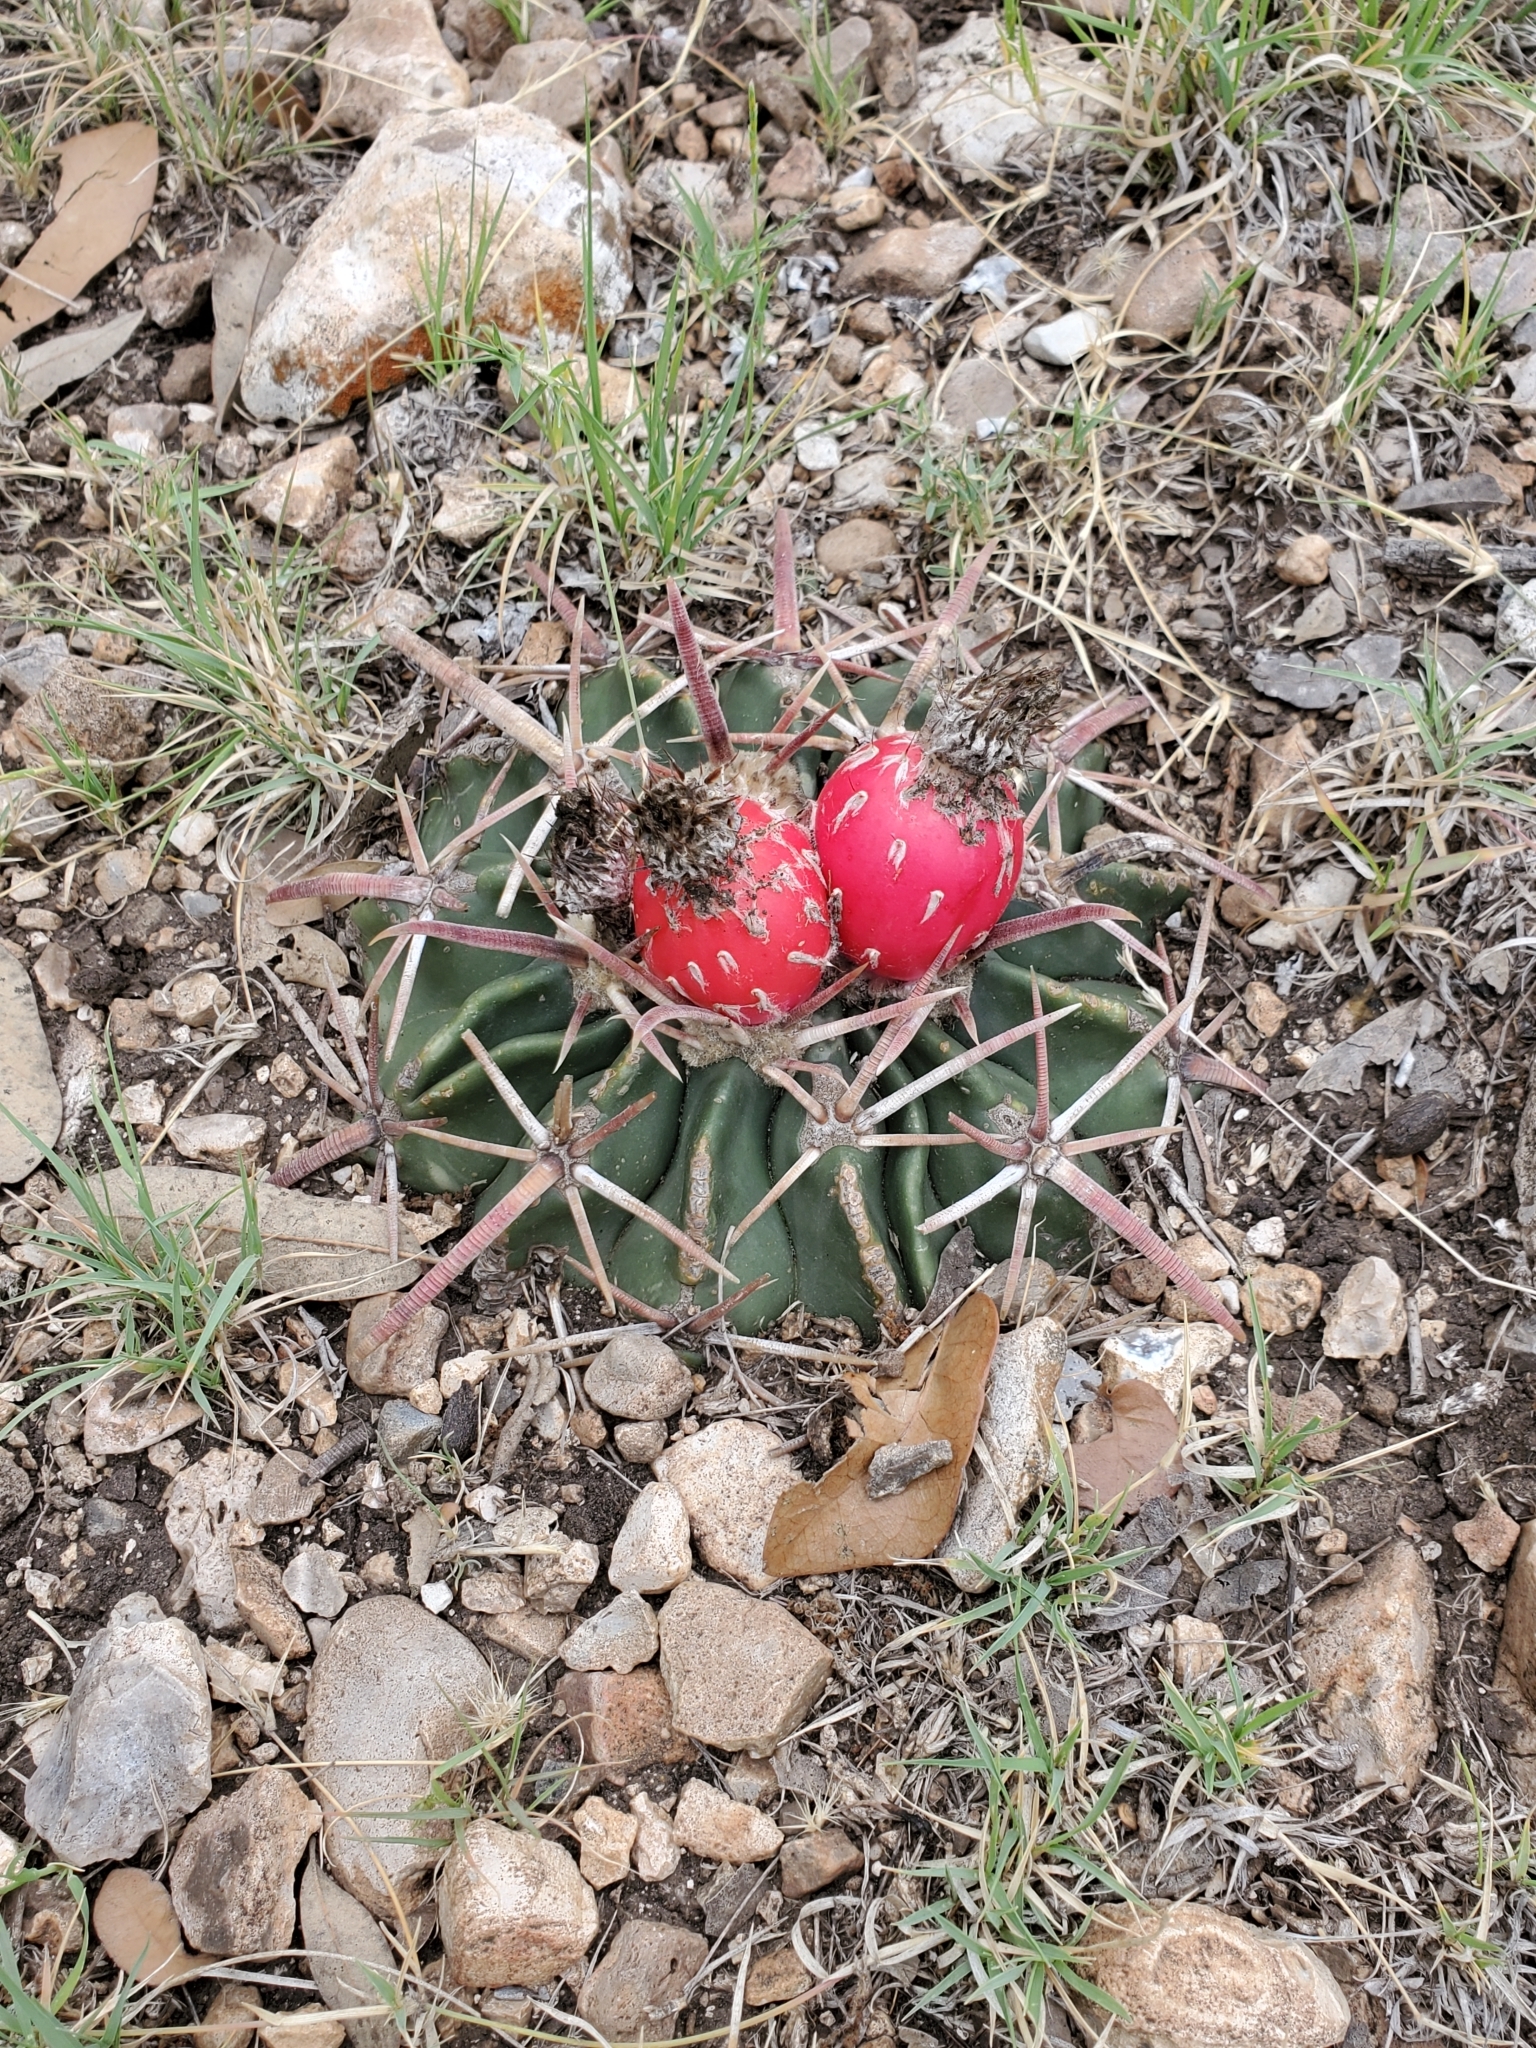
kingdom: Plantae
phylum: Tracheophyta
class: Magnoliopsida
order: Caryophyllales
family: Cactaceae
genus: Echinocactus
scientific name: Echinocactus texensis
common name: Devil's pincushion
